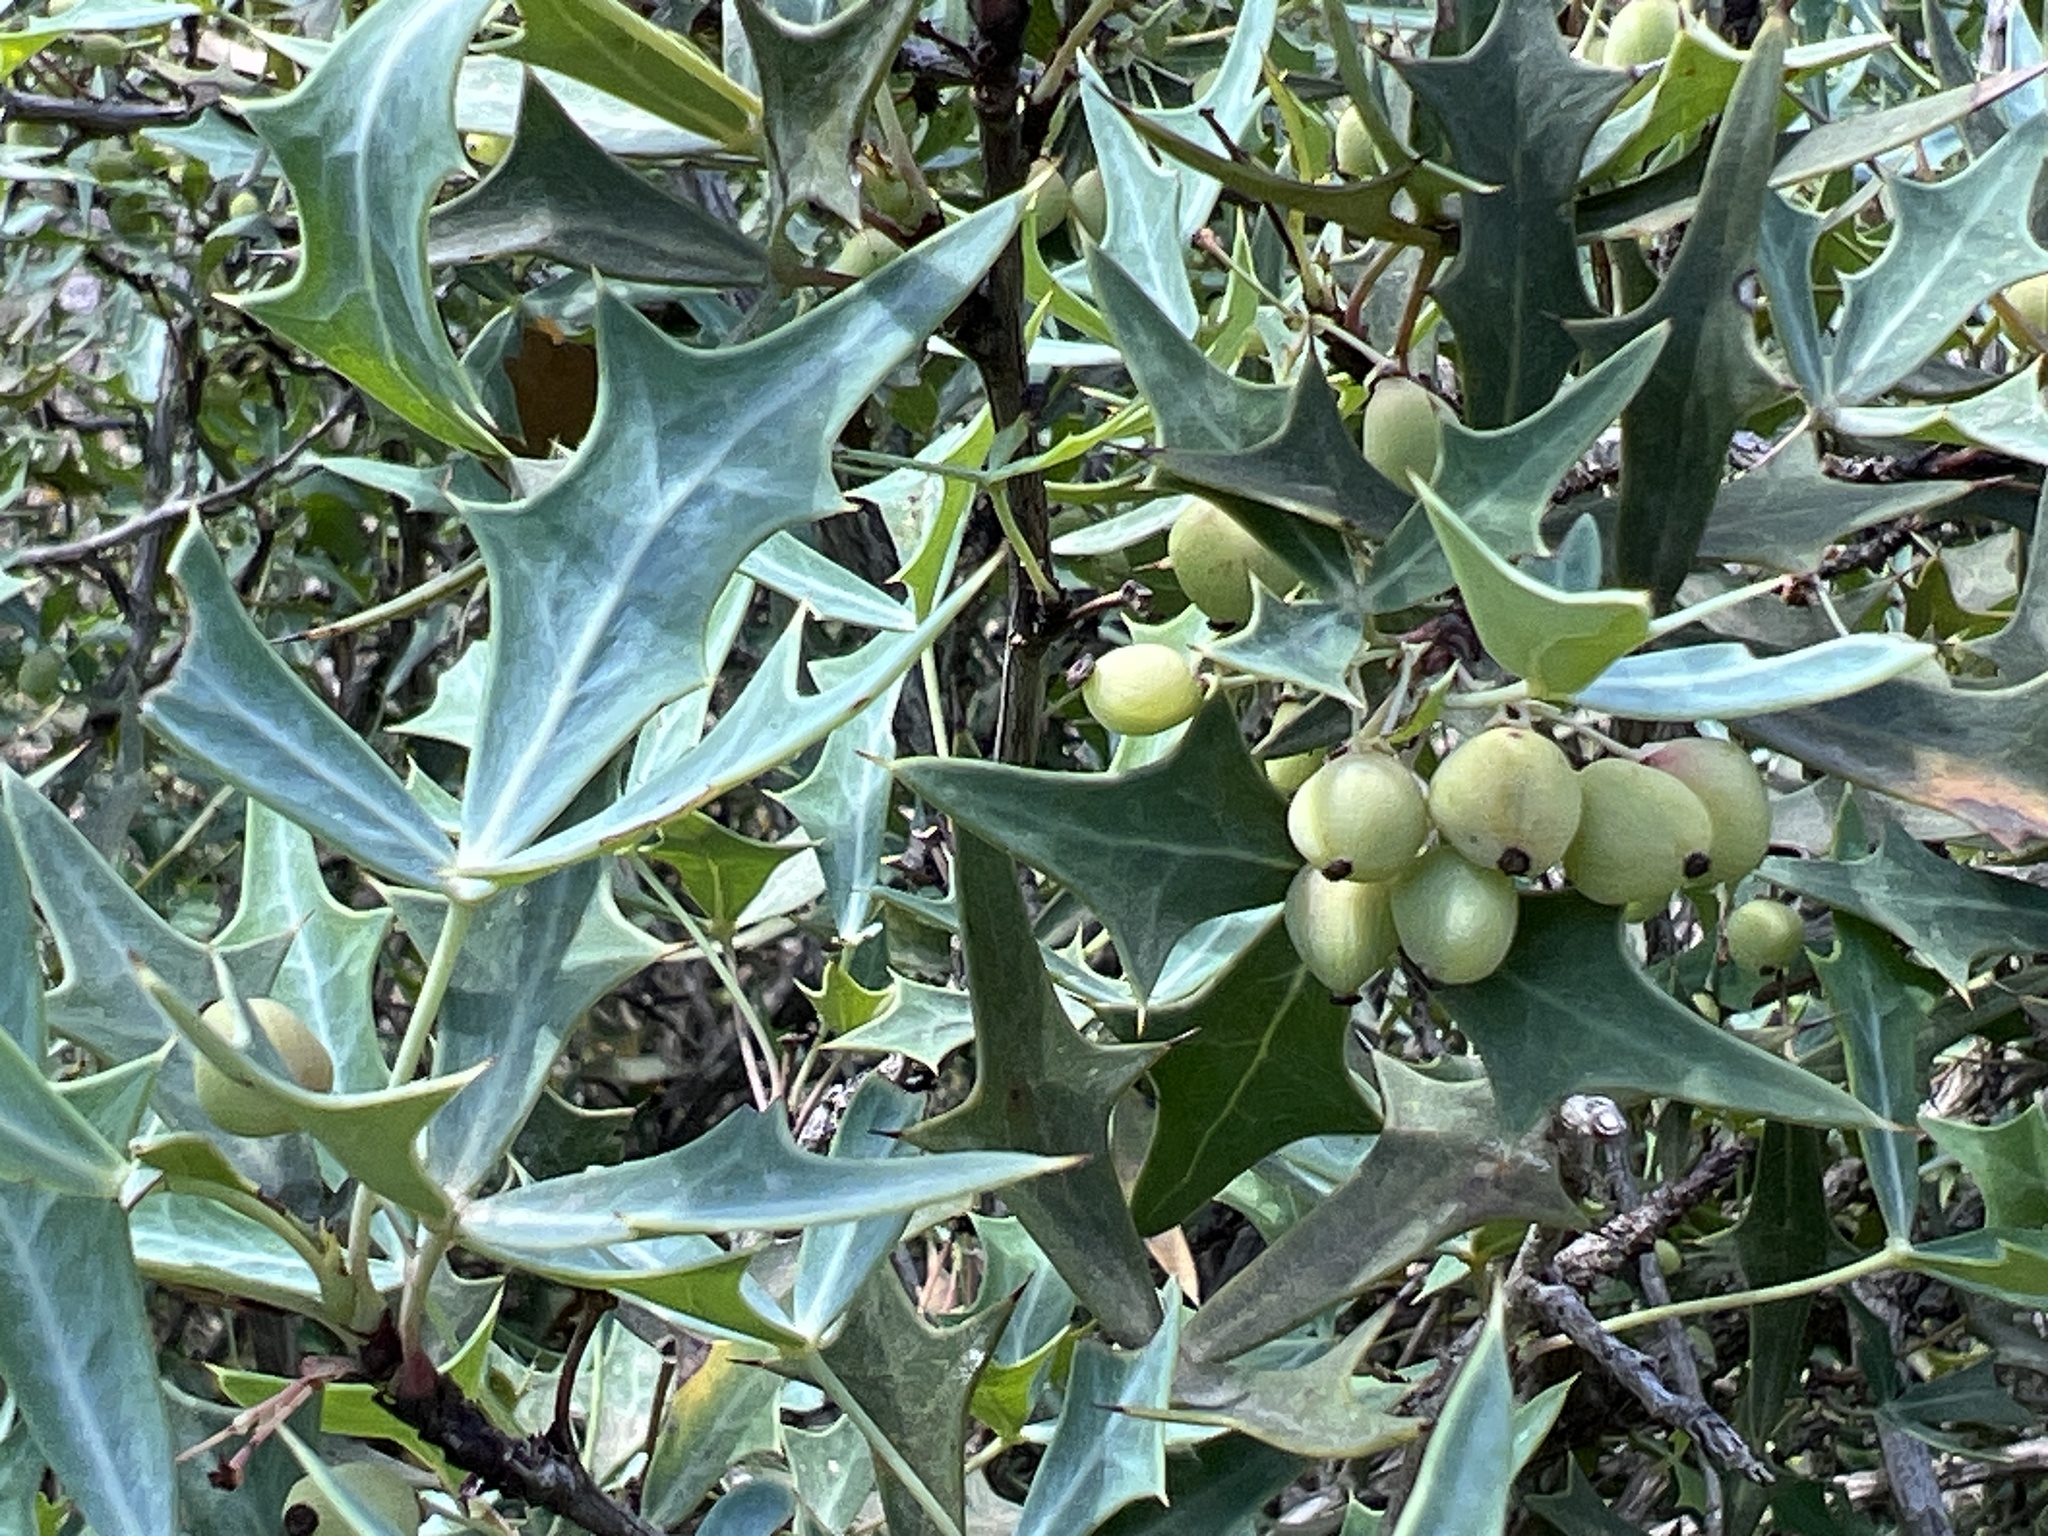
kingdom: Plantae
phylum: Tracheophyta
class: Magnoliopsida
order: Ranunculales
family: Berberidaceae
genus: Alloberberis
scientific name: Alloberberis trifoliolata
